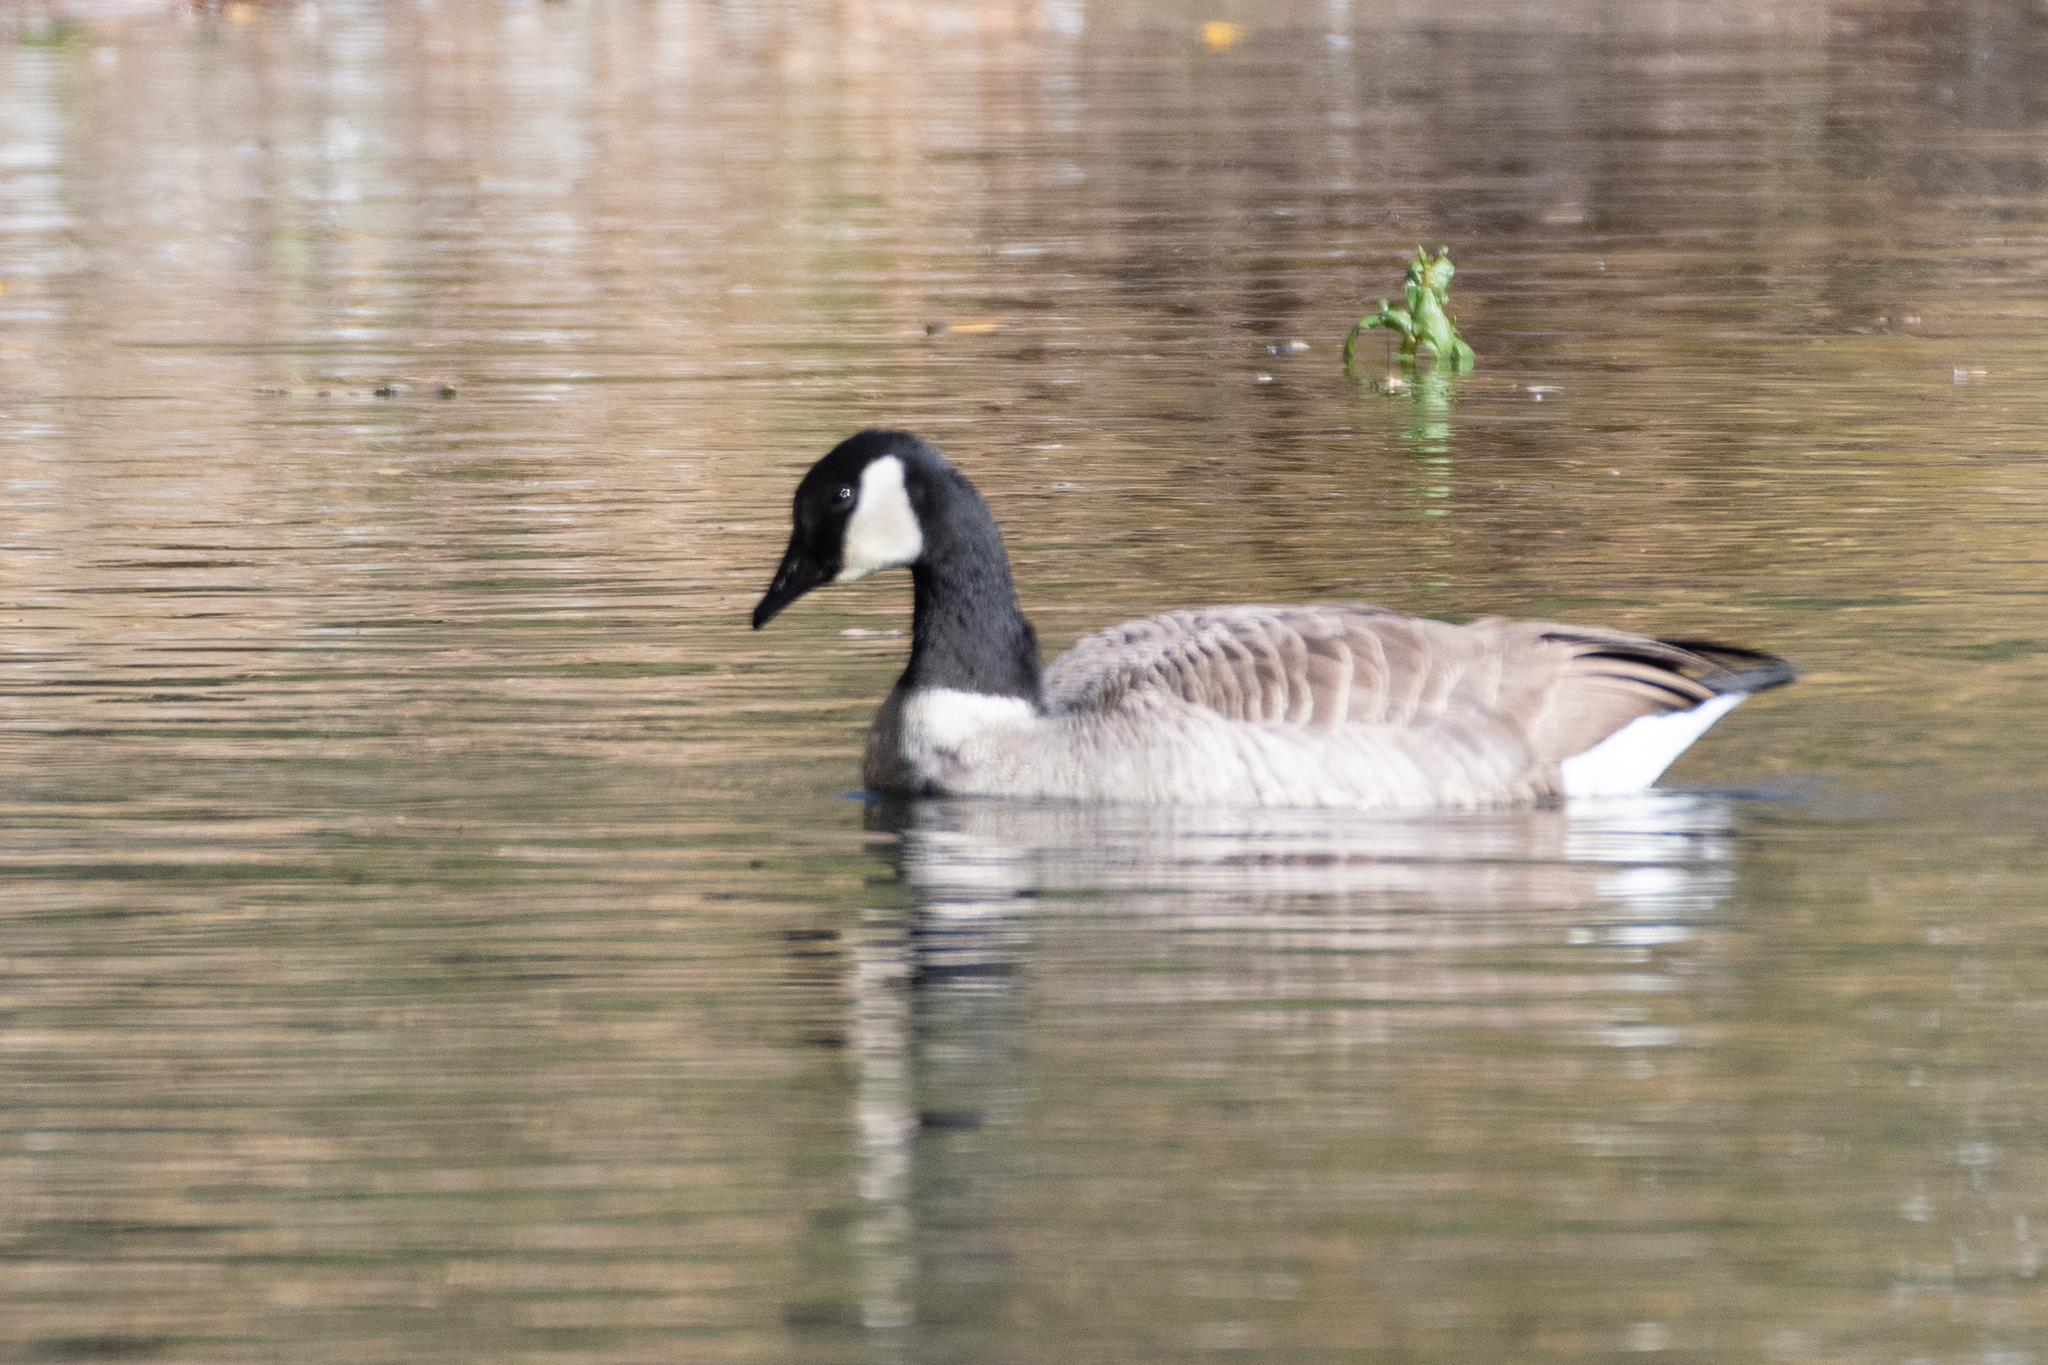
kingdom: Animalia
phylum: Chordata
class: Aves
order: Anseriformes
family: Anatidae
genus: Branta
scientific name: Branta canadensis
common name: Canada goose
